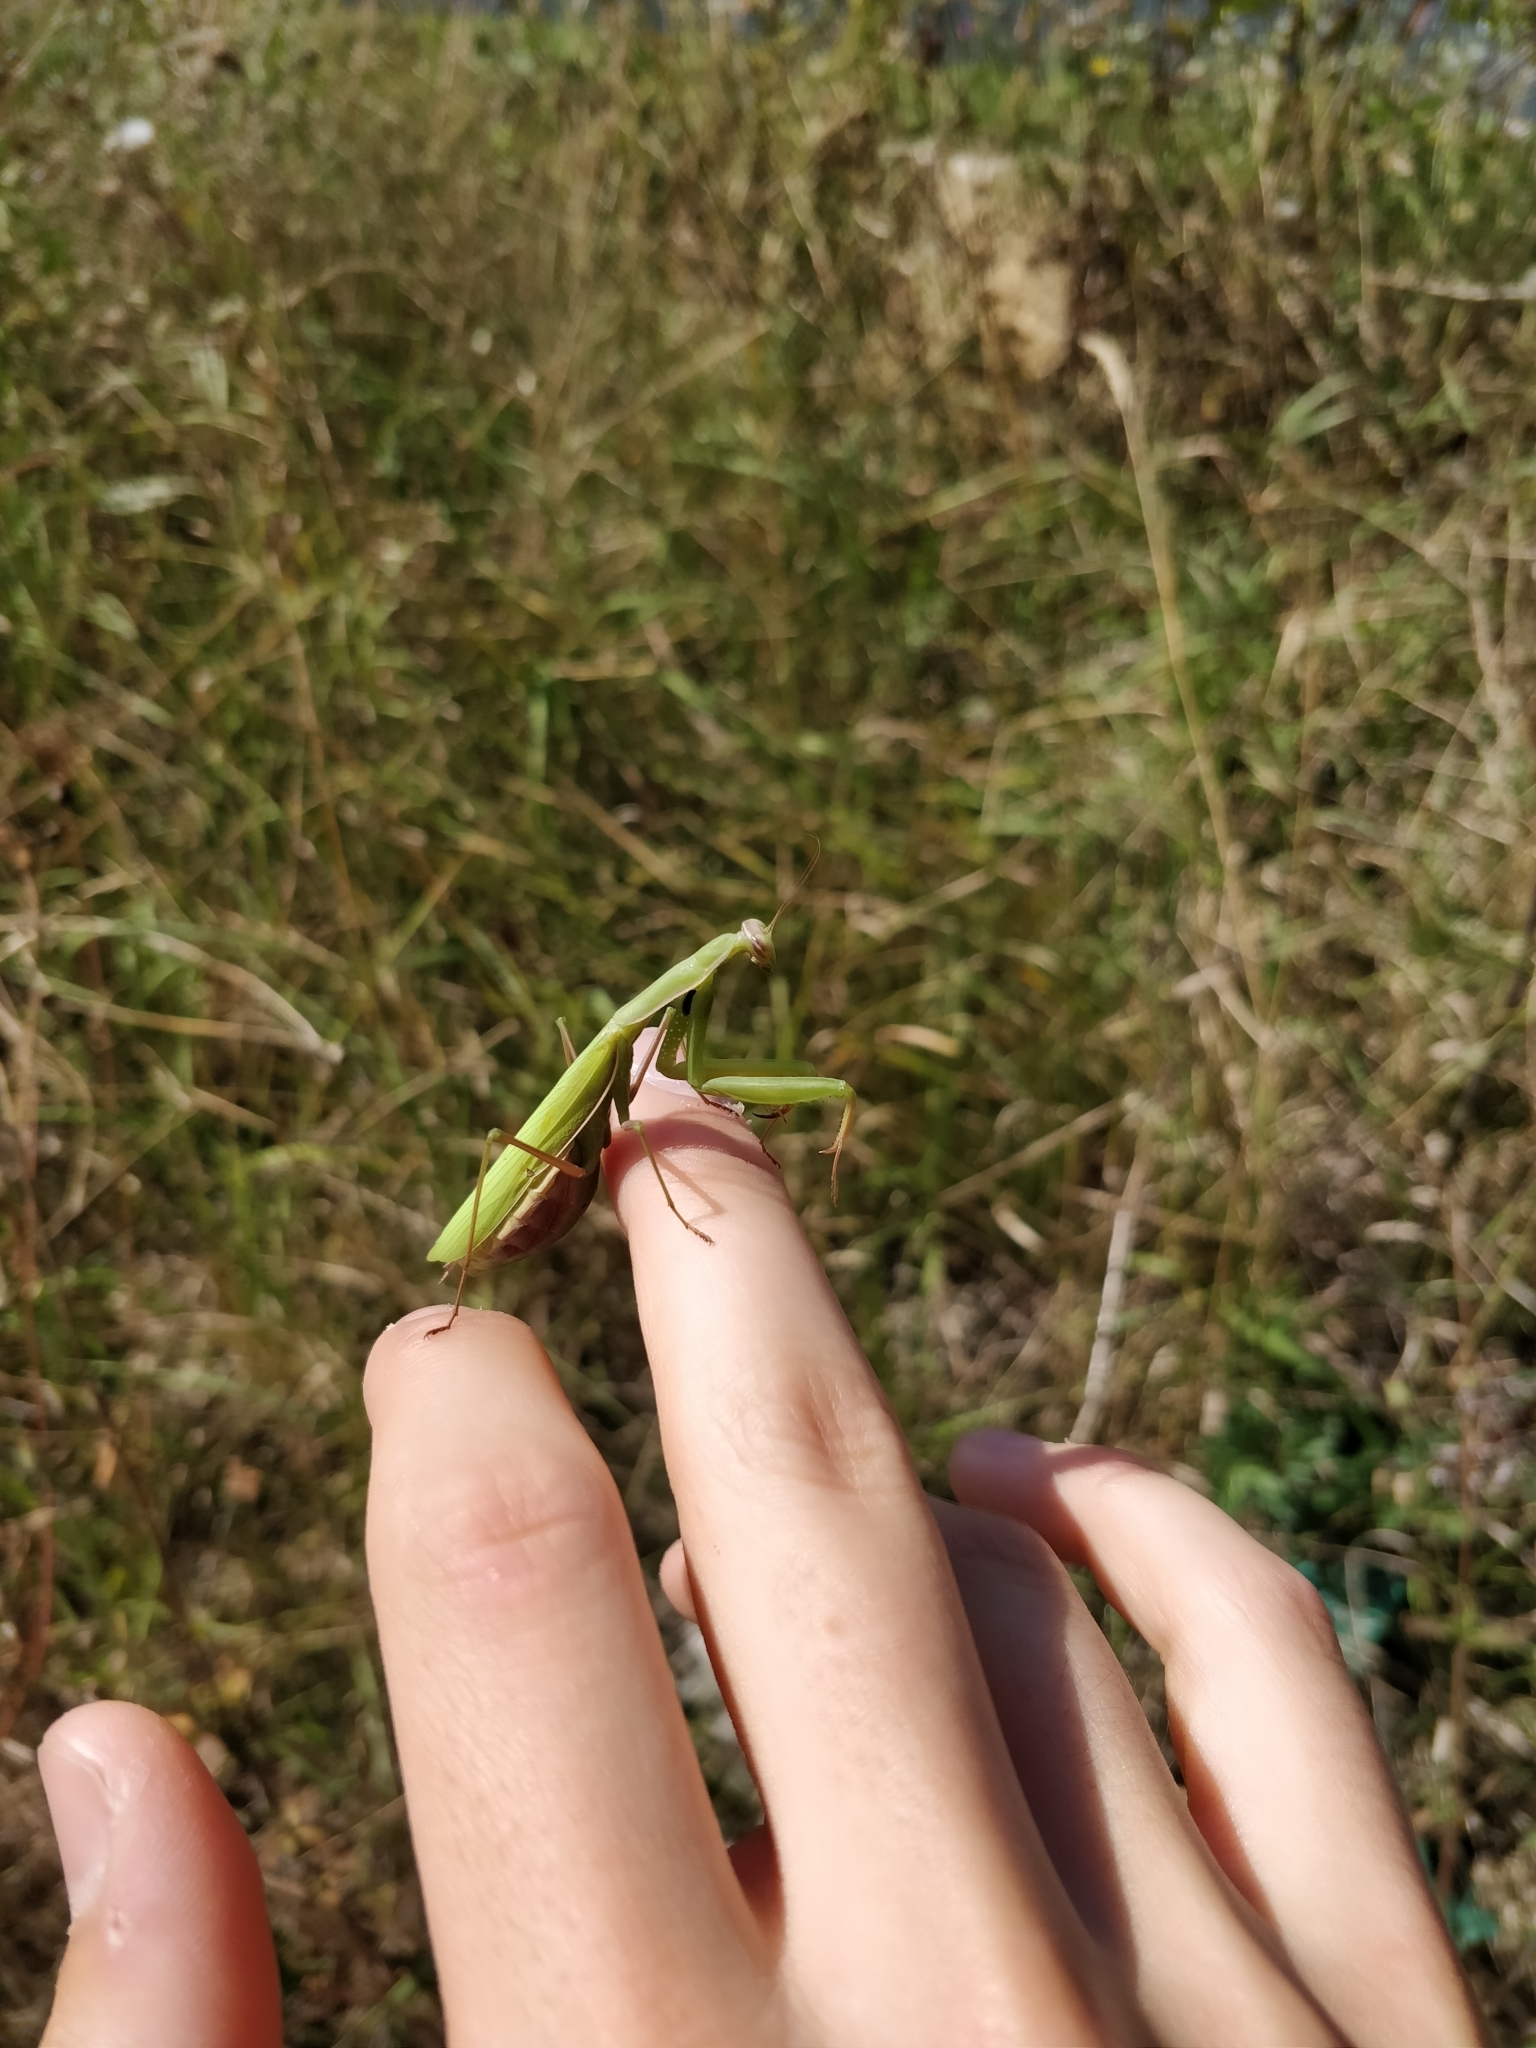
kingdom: Animalia
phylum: Arthropoda
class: Insecta
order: Mantodea
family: Mantidae
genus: Mantis
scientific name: Mantis religiosa
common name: Praying mantis
